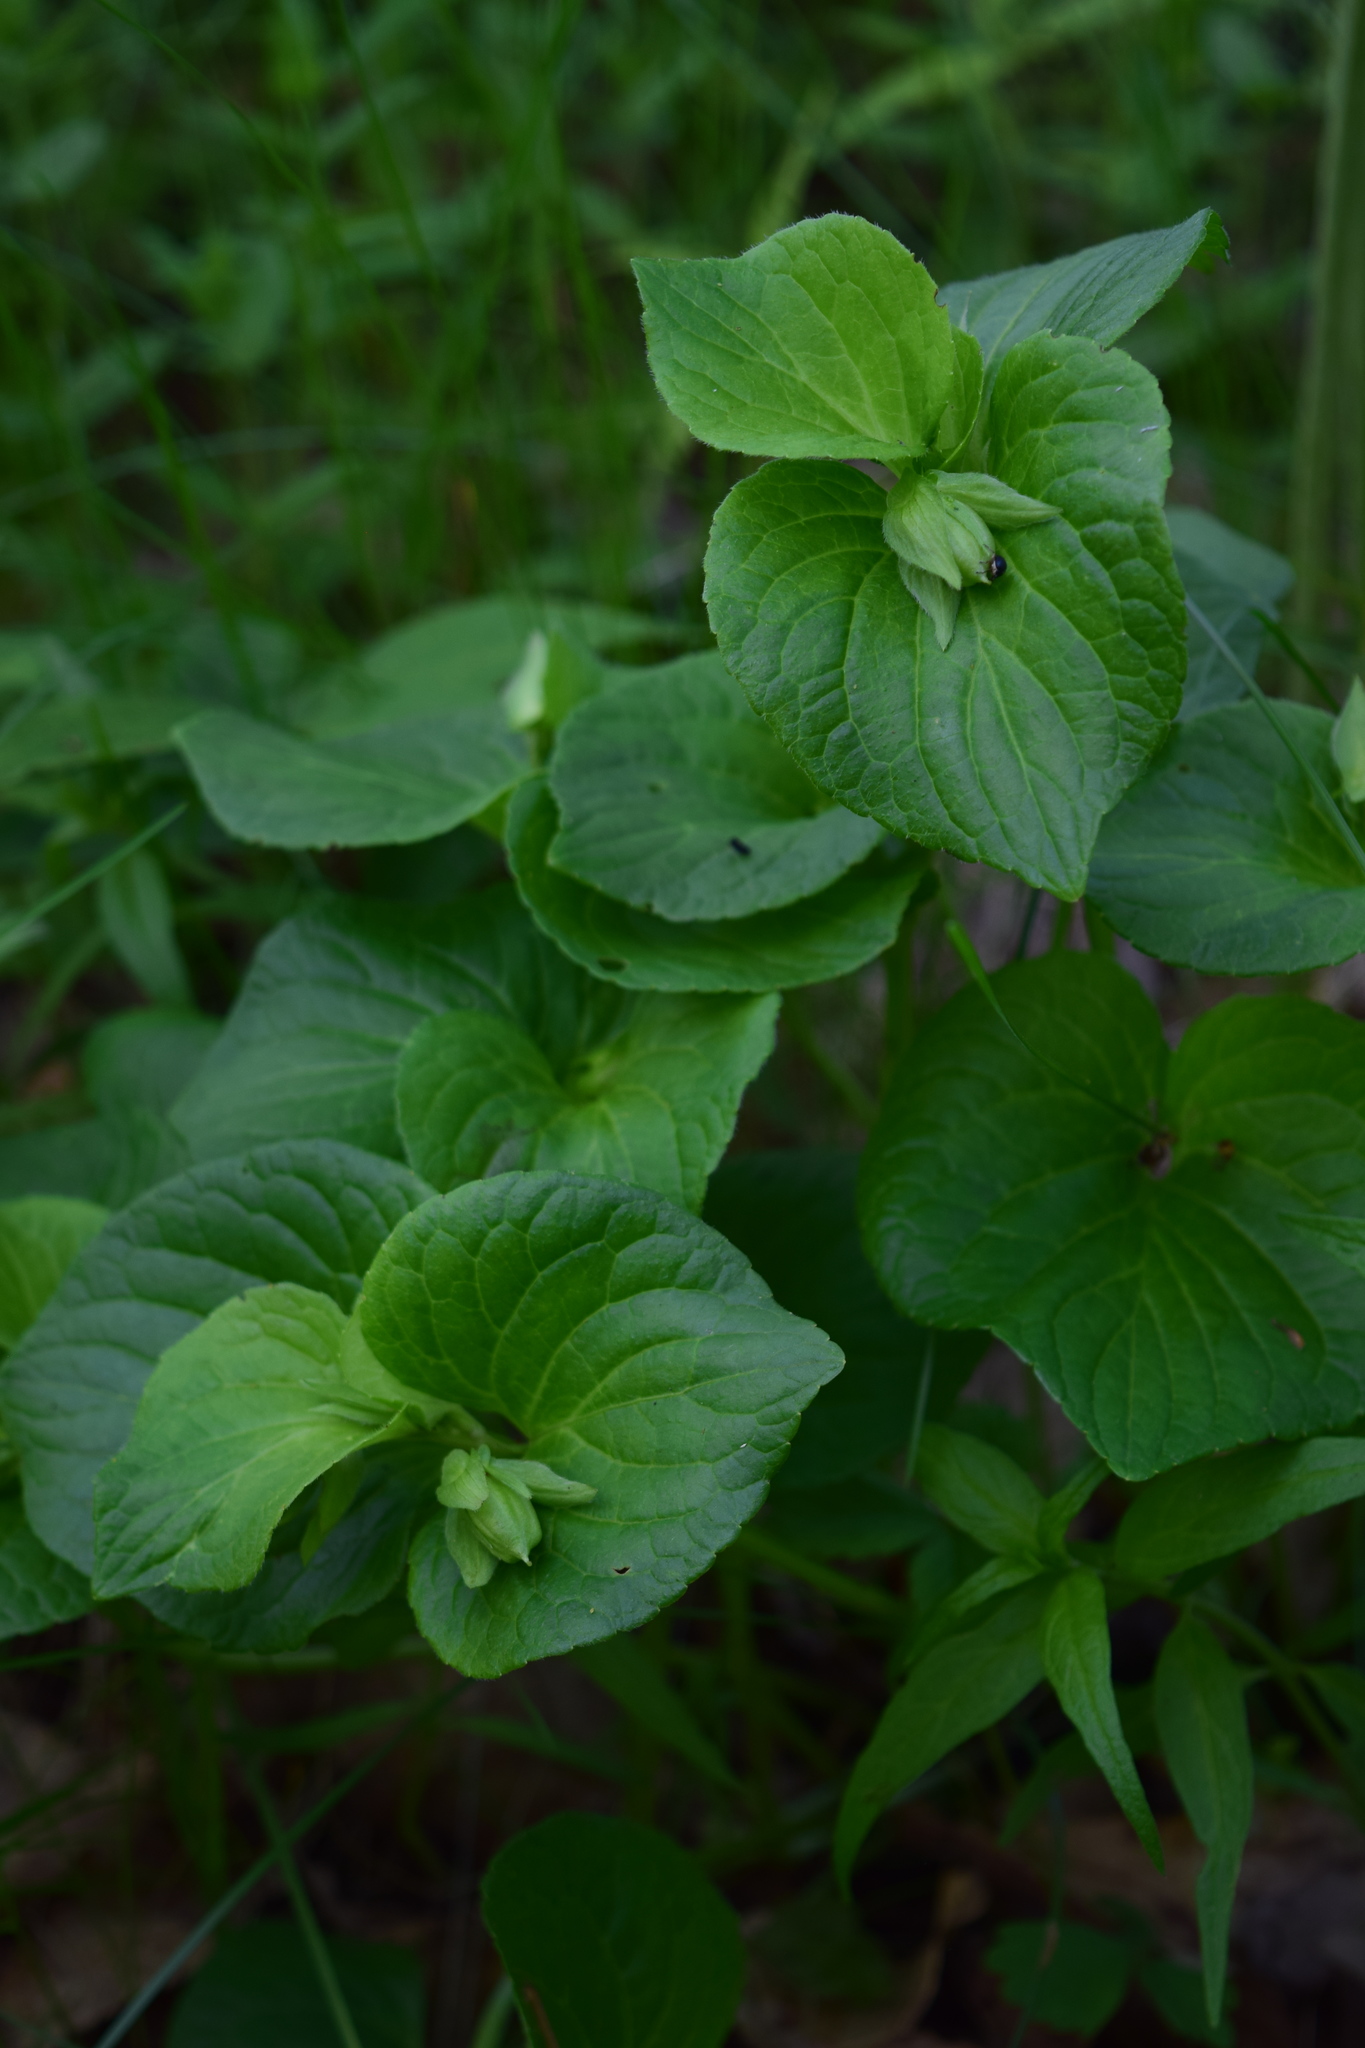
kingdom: Plantae
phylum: Tracheophyta
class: Magnoliopsida
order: Malpighiales
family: Violaceae
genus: Viola
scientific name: Viola mirabilis
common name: Wonder violet
